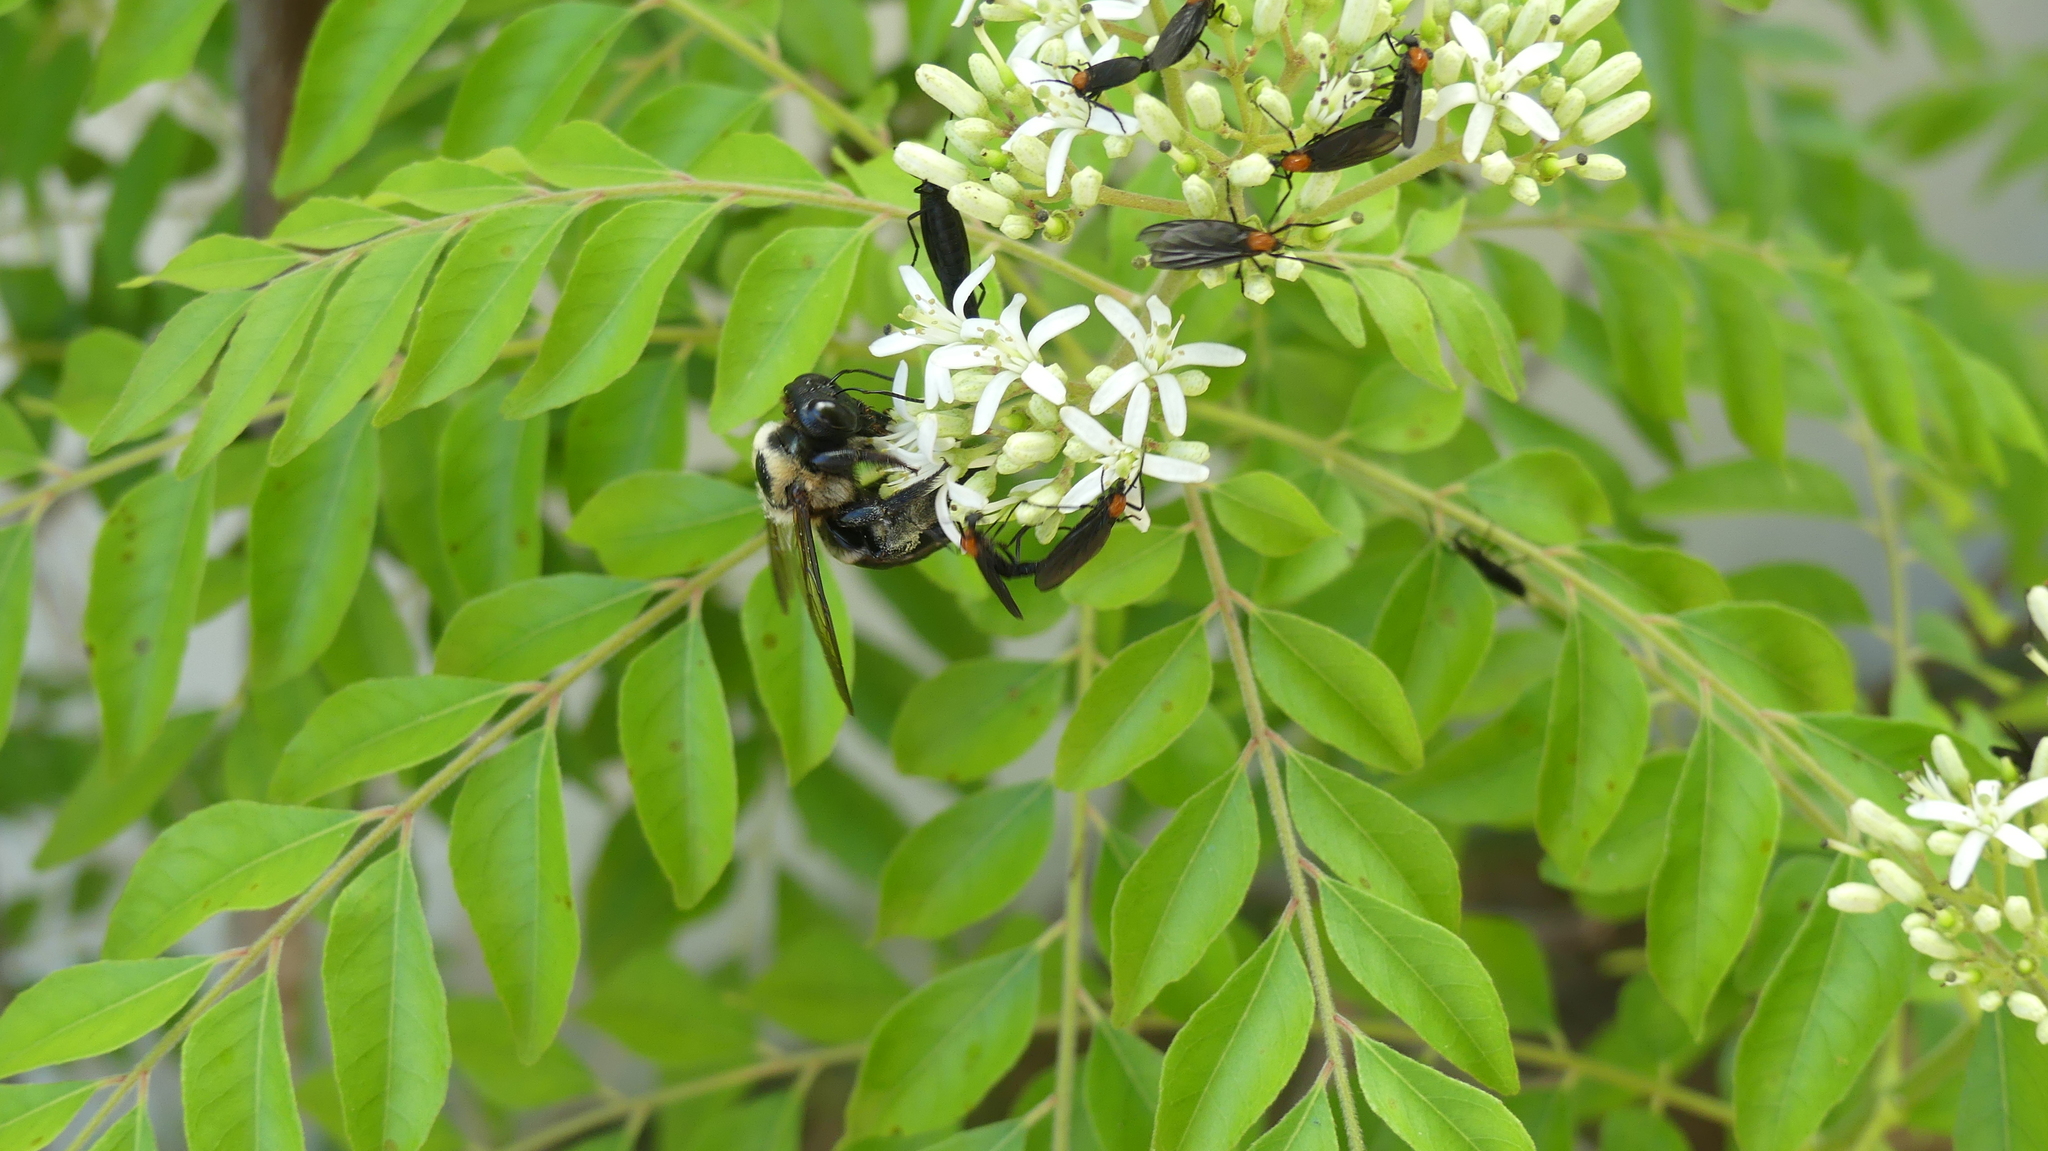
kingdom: Animalia
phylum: Arthropoda
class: Insecta
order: Hymenoptera
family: Apidae
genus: Xylocopa
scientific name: Xylocopa virginica
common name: Carpenter bee
